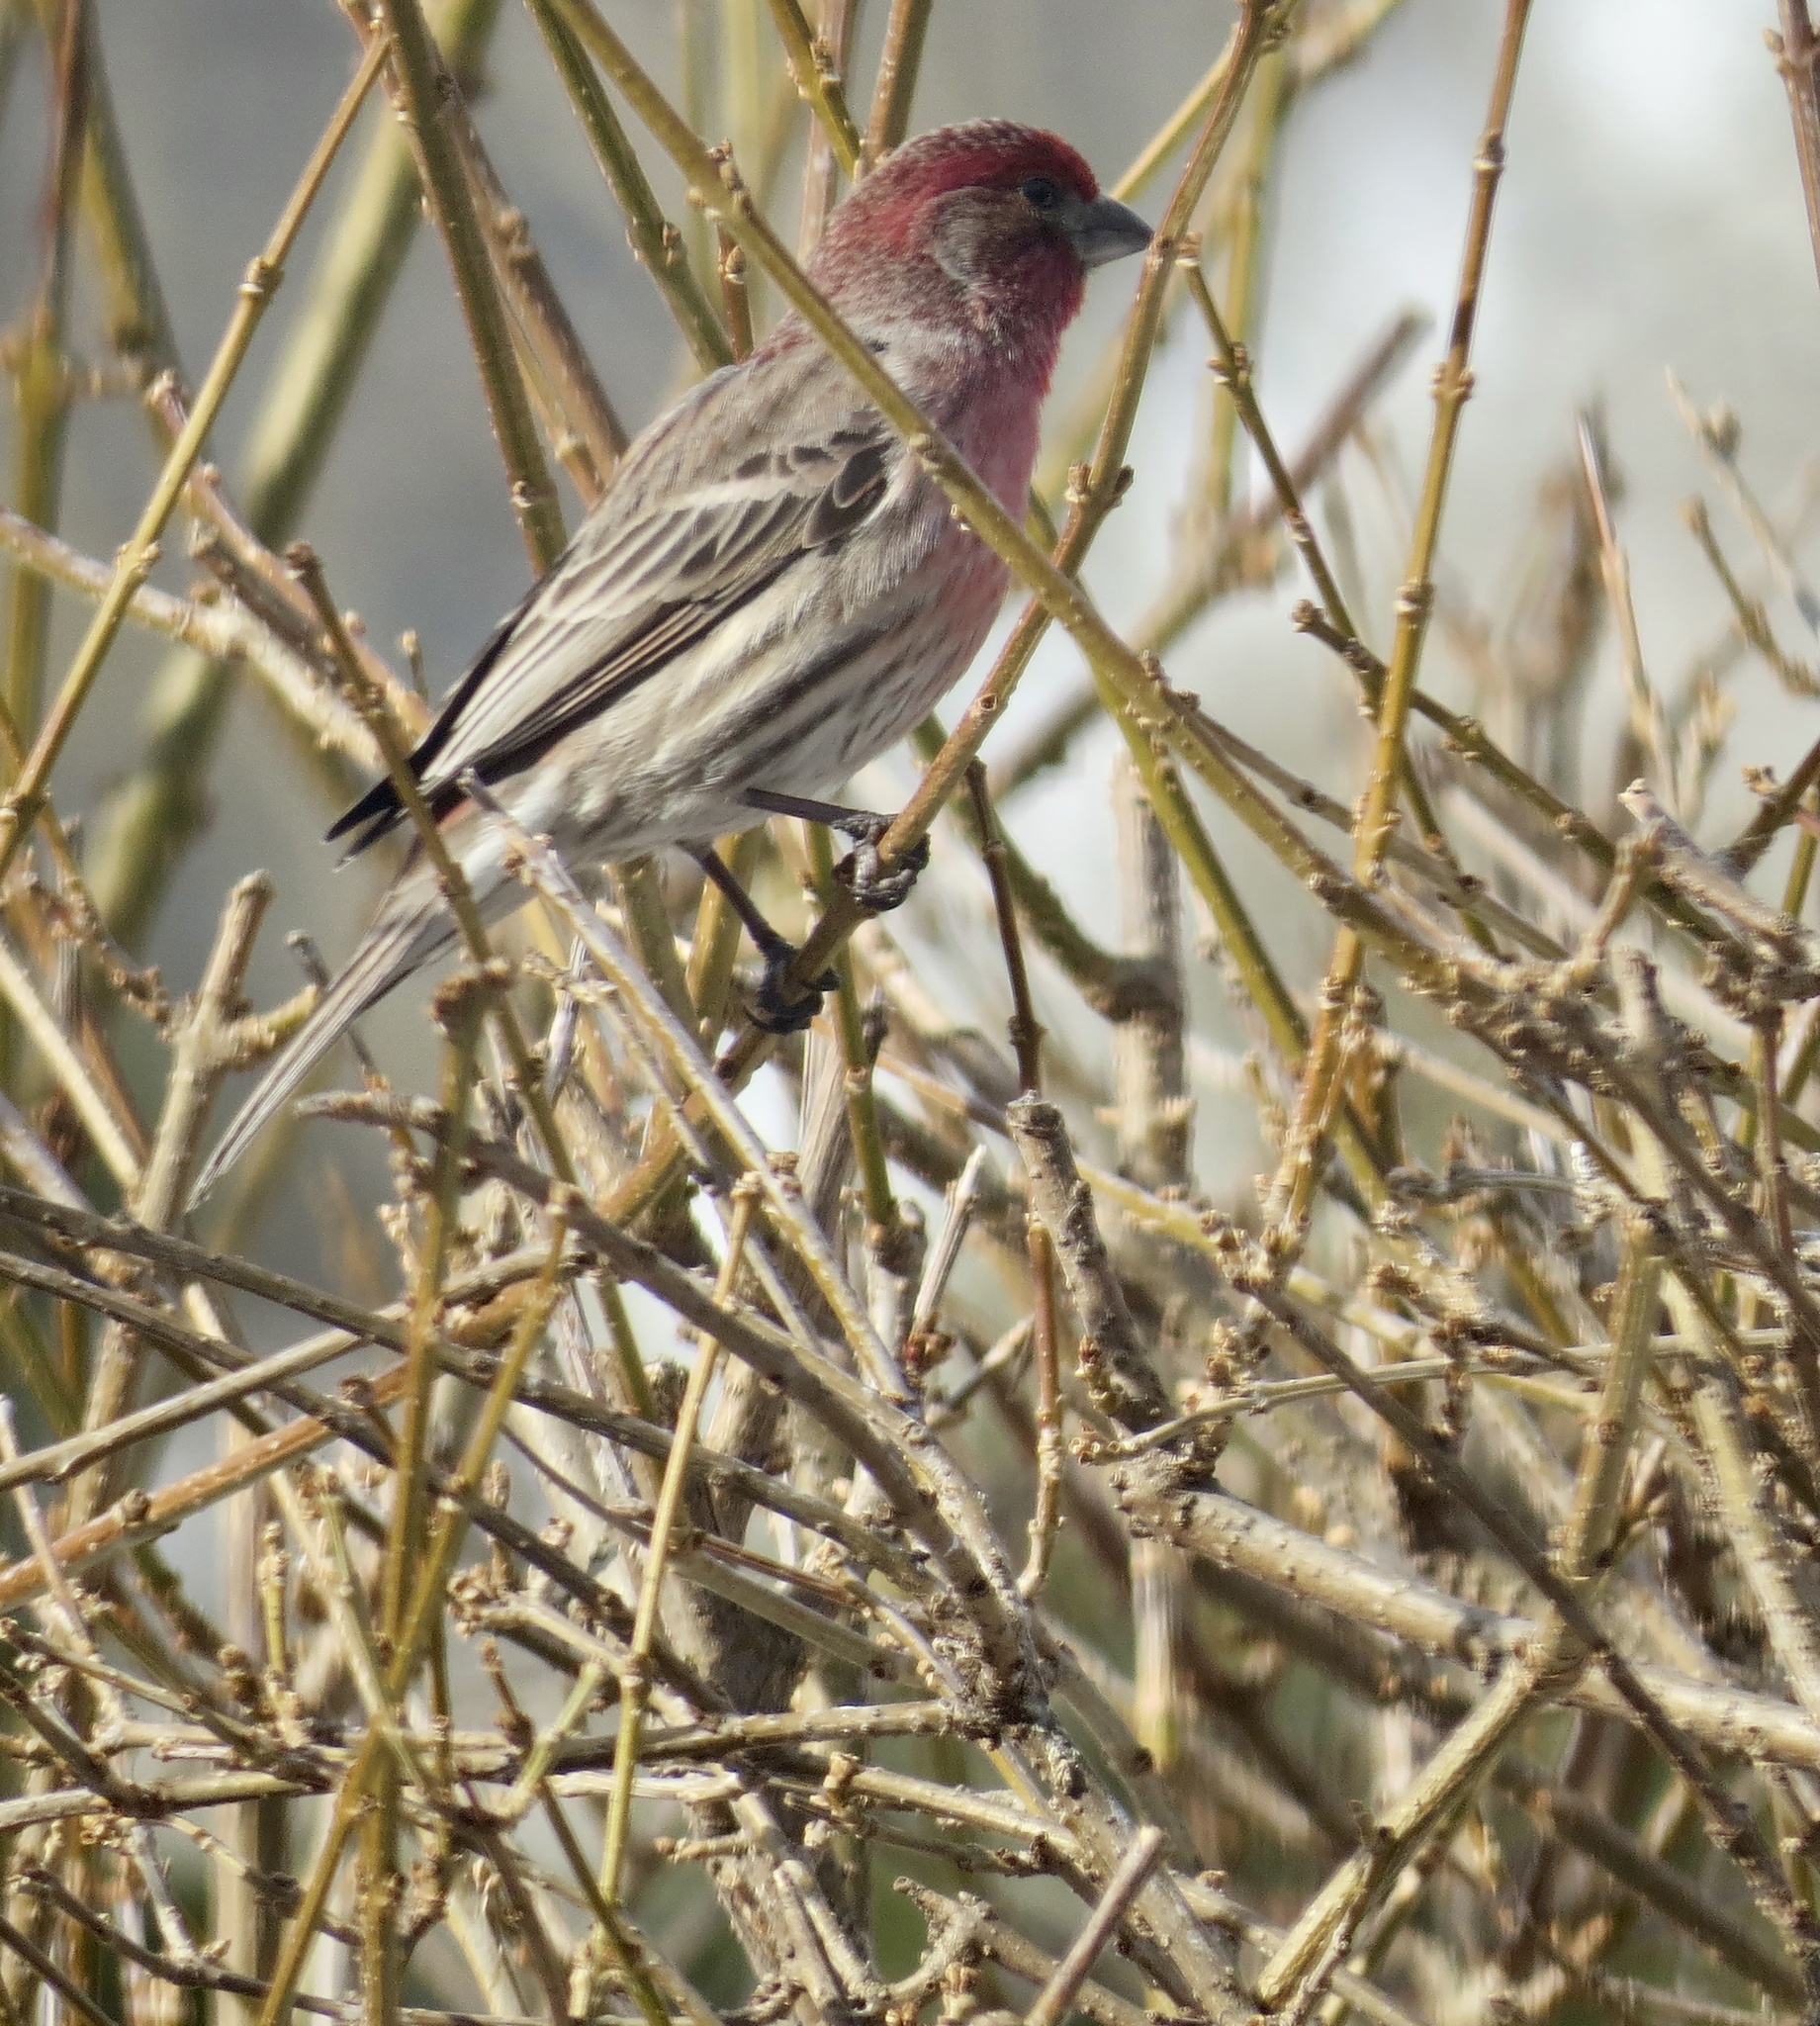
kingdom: Animalia
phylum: Chordata
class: Aves
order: Passeriformes
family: Fringillidae
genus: Haemorhous
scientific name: Haemorhous mexicanus
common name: House finch
